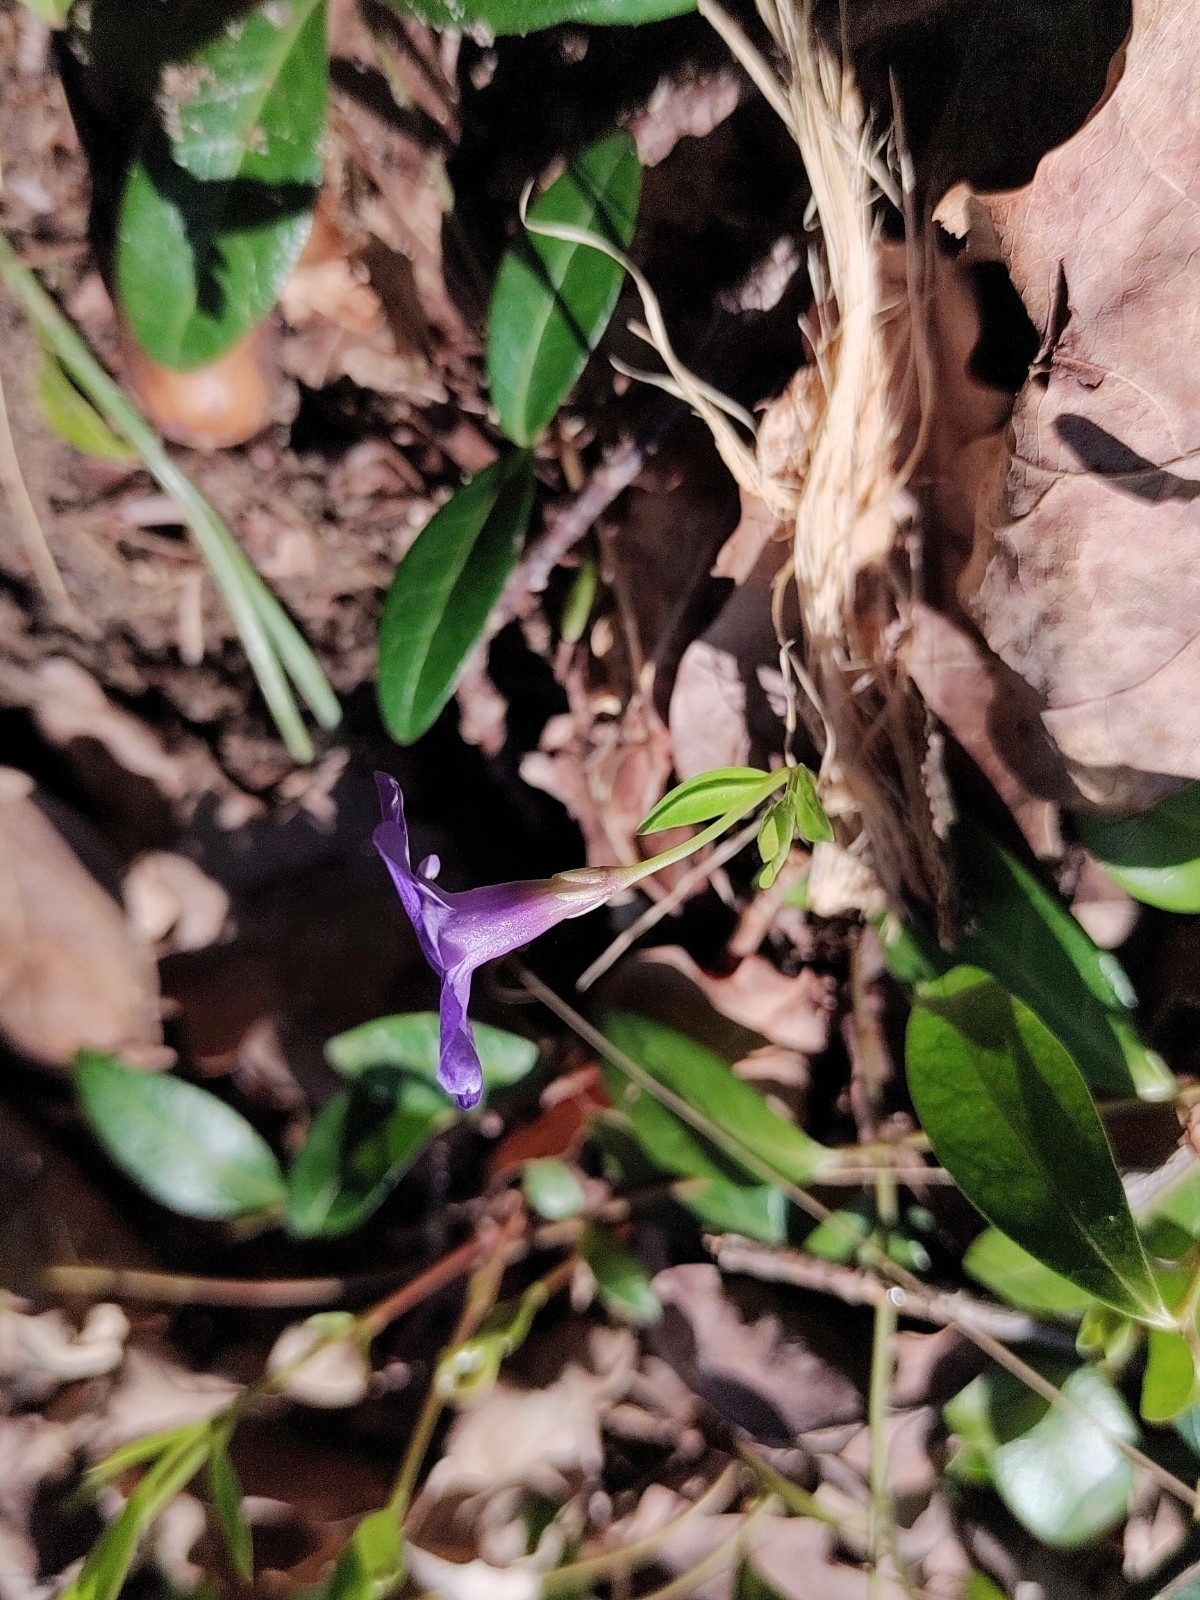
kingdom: Plantae
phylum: Tracheophyta
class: Magnoliopsida
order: Gentianales
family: Apocynaceae
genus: Vinca
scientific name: Vinca minor
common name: Lesser periwinkle
